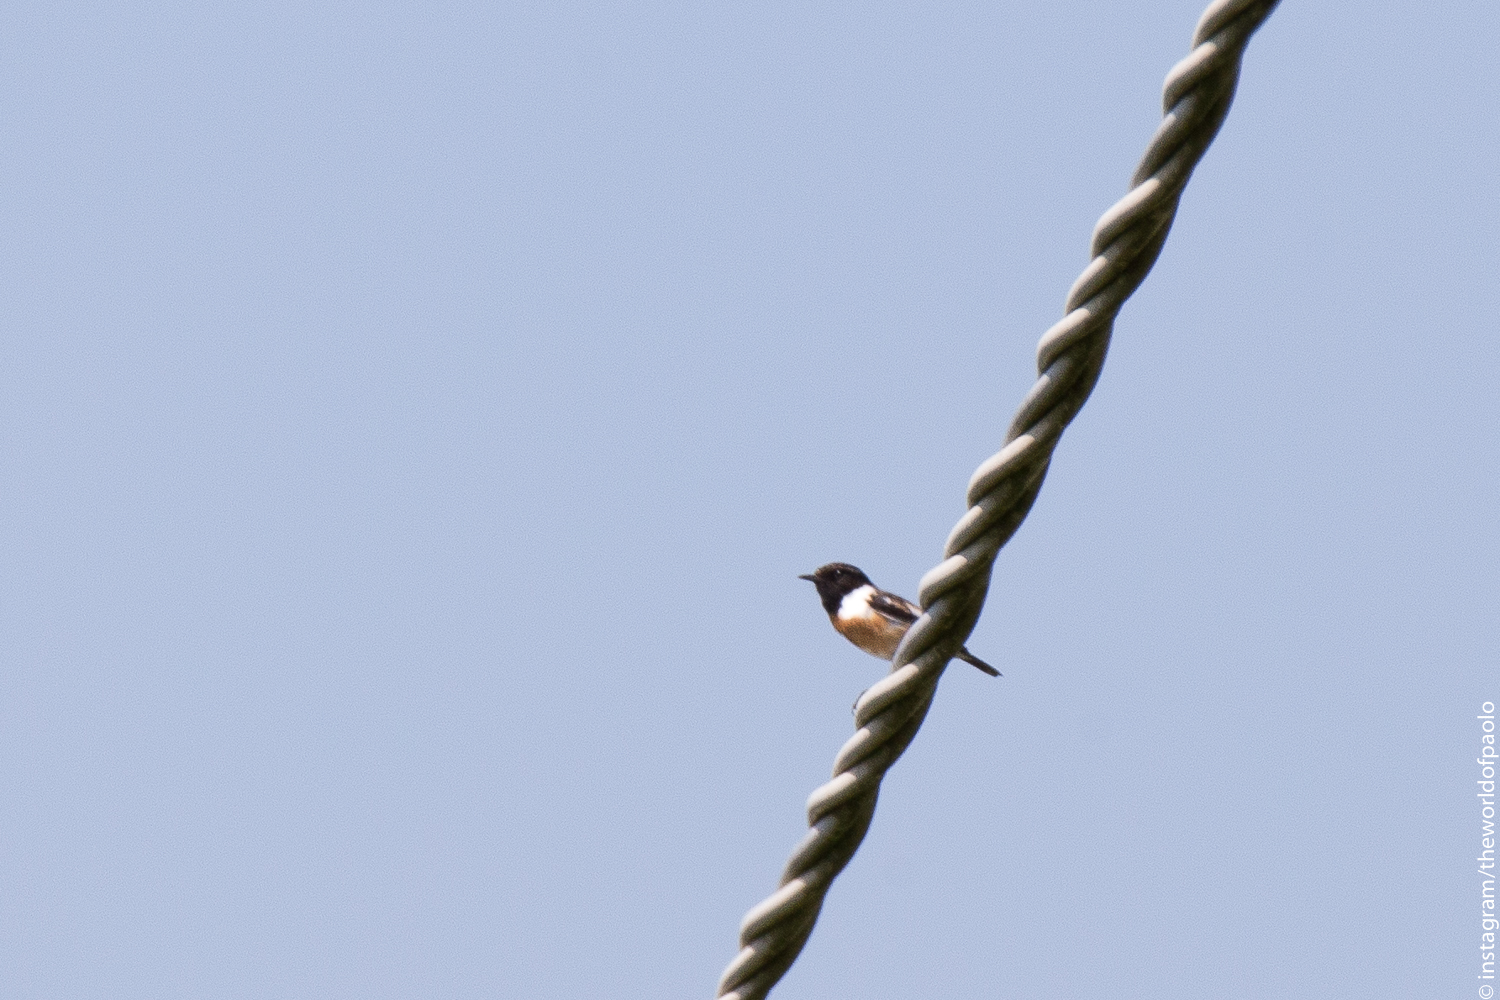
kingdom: Animalia
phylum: Chordata
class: Aves
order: Passeriformes
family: Muscicapidae
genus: Saxicola
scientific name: Saxicola rubicola
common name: European stonechat
